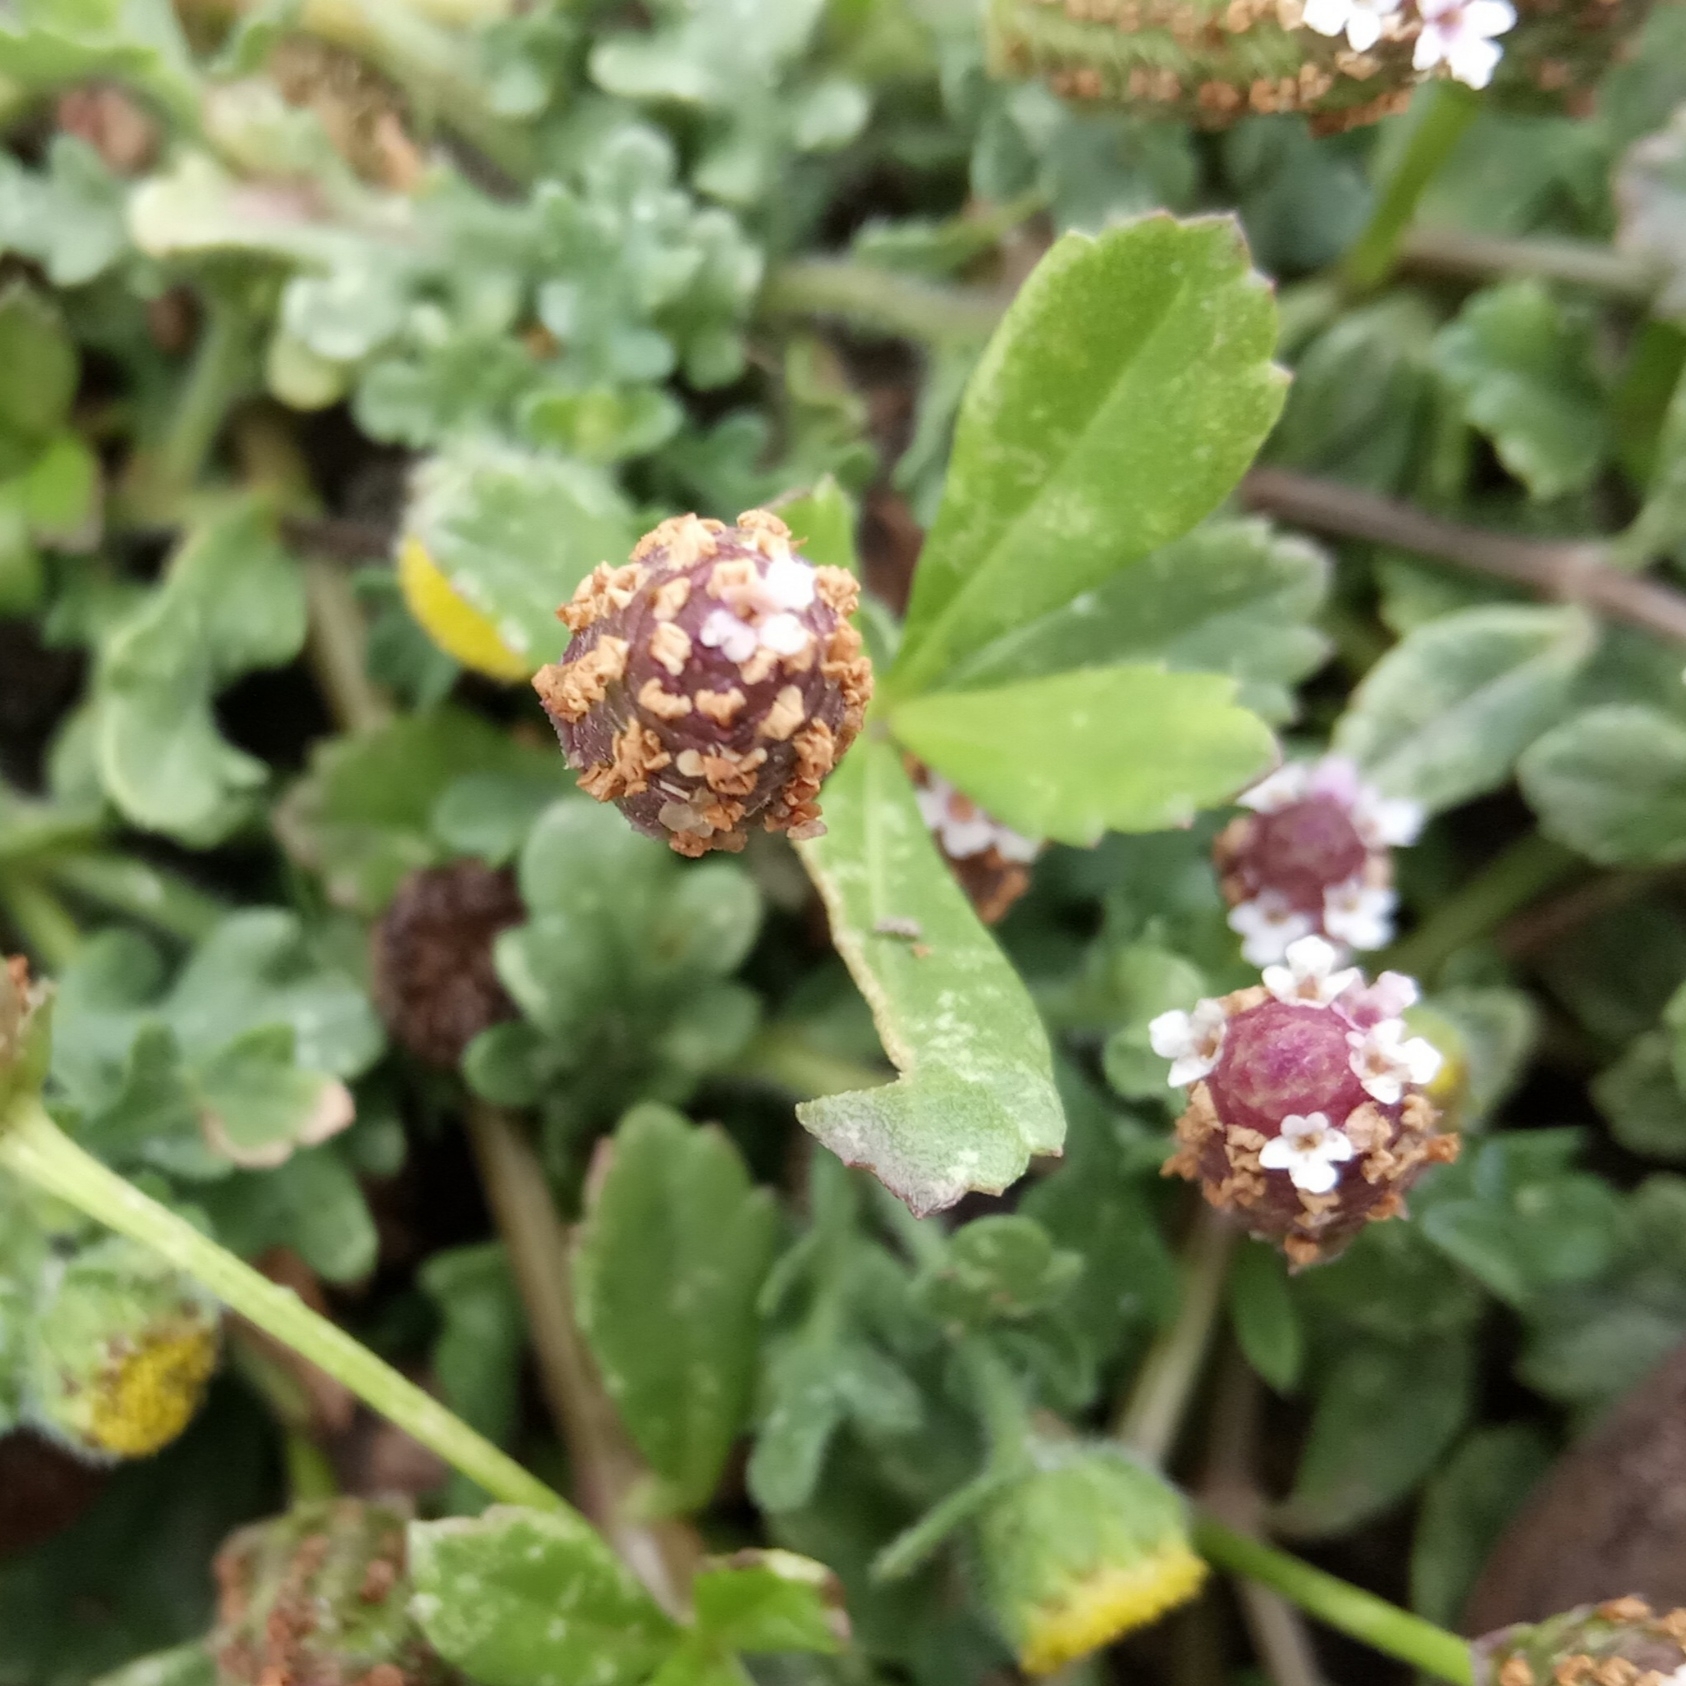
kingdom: Plantae
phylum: Tracheophyta
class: Magnoliopsida
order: Lamiales
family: Verbenaceae
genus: Phyla
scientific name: Phyla nodiflora
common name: Frogfruit
